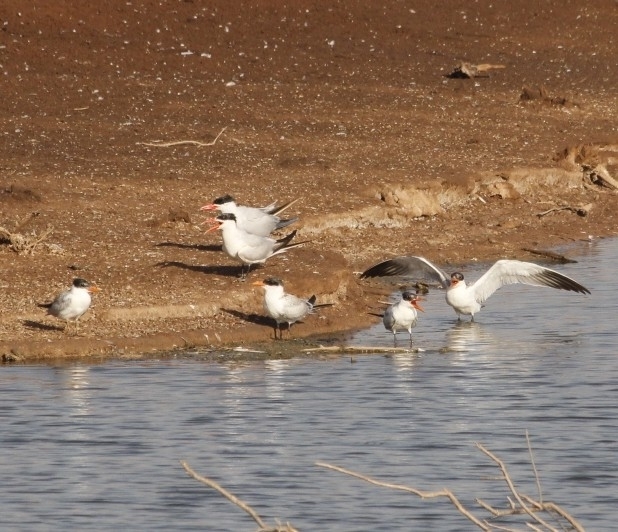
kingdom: Animalia
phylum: Chordata
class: Aves
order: Charadriiformes
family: Laridae
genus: Hydroprogne
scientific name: Hydroprogne caspia
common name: Caspian tern
